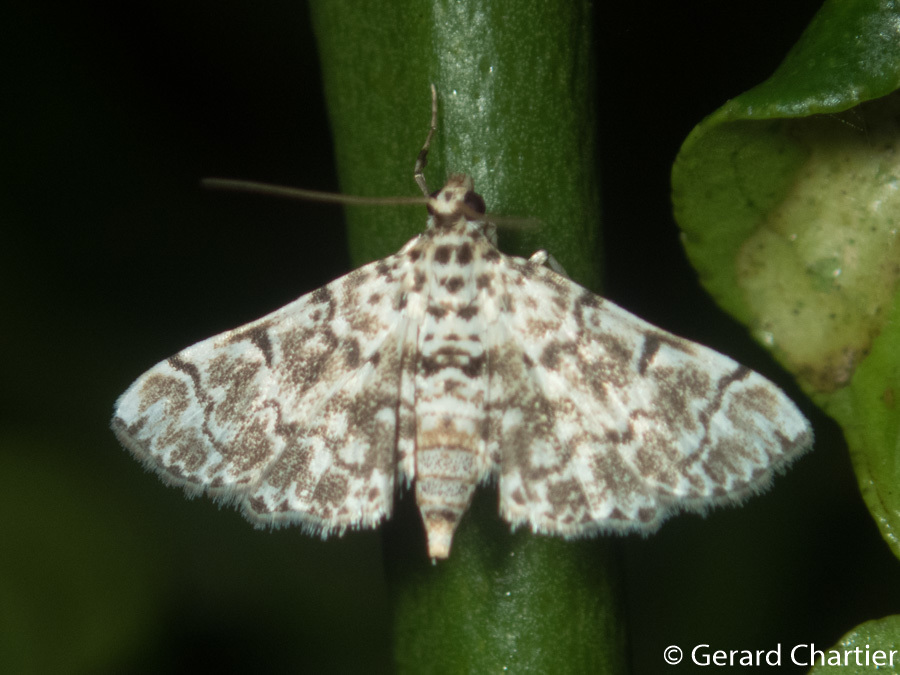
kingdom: Animalia
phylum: Arthropoda
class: Insecta
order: Lepidoptera
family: Crambidae
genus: Metoeca
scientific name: Metoeca foedalis
